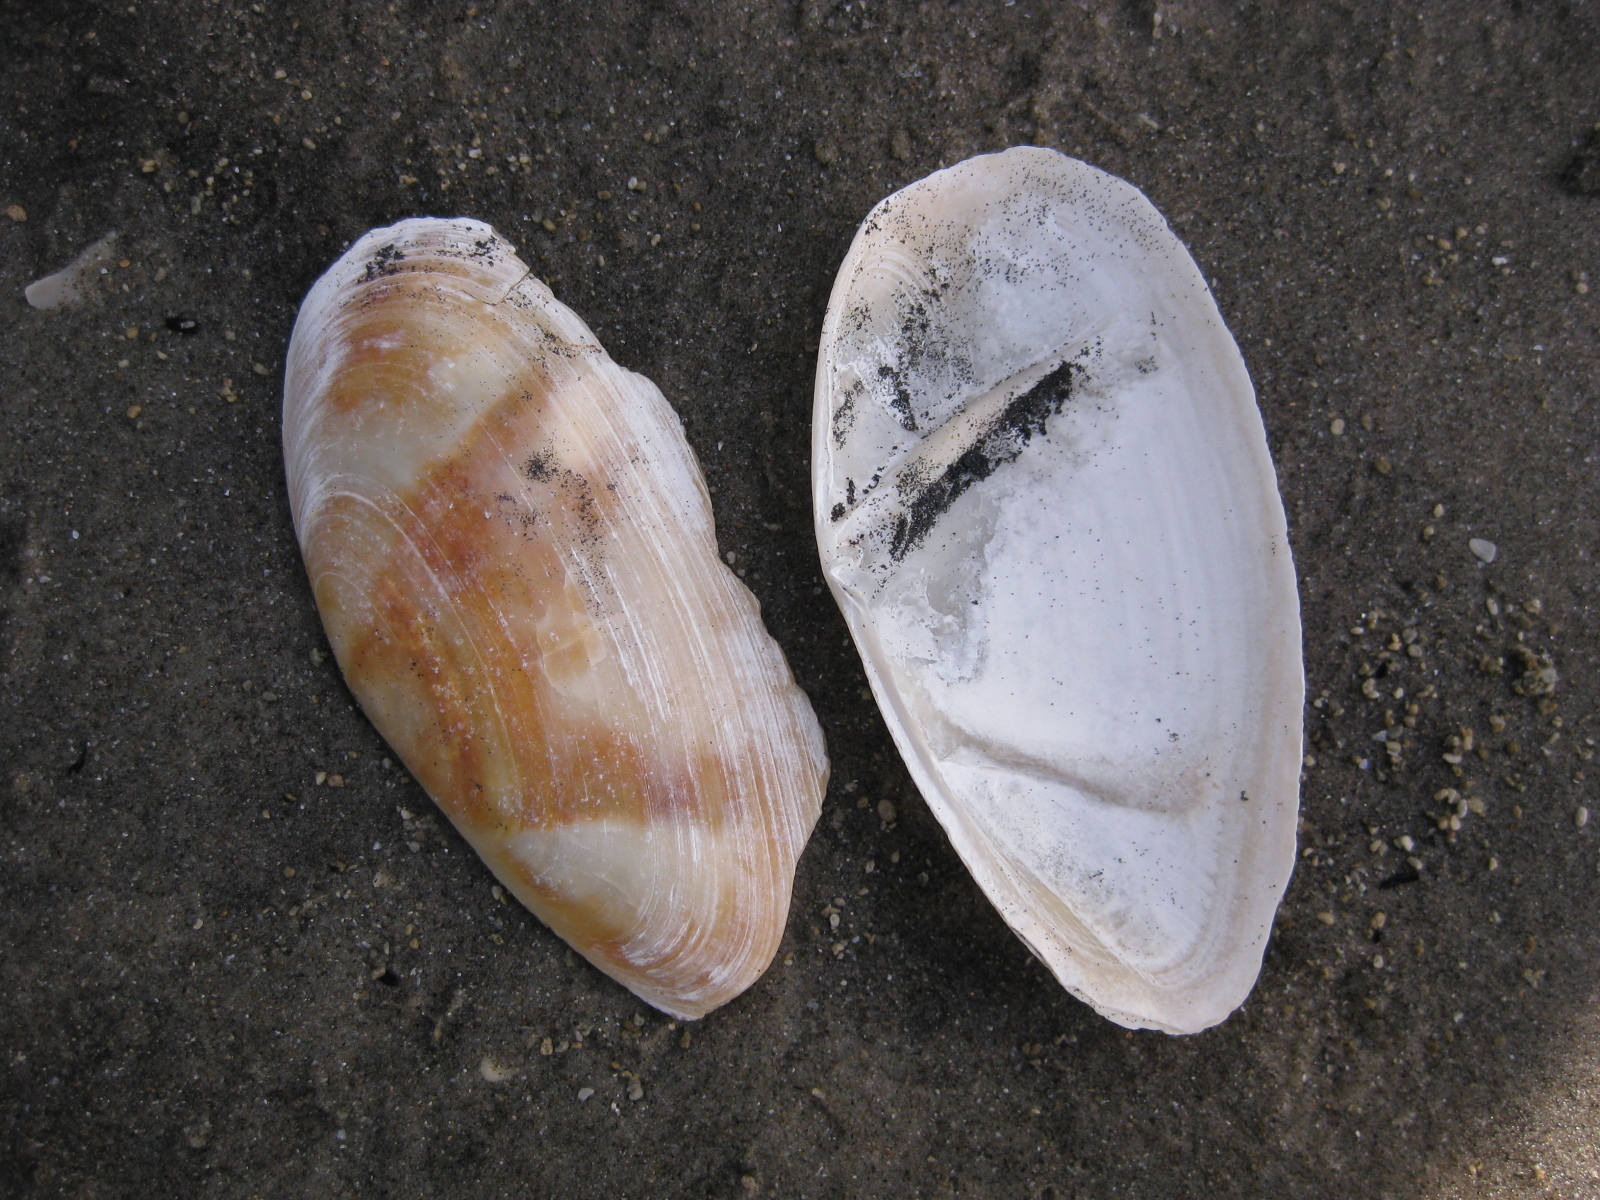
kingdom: Animalia
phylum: Mollusca
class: Bivalvia
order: Venerida
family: Mactridae
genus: Resania
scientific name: Resania lanceolata
